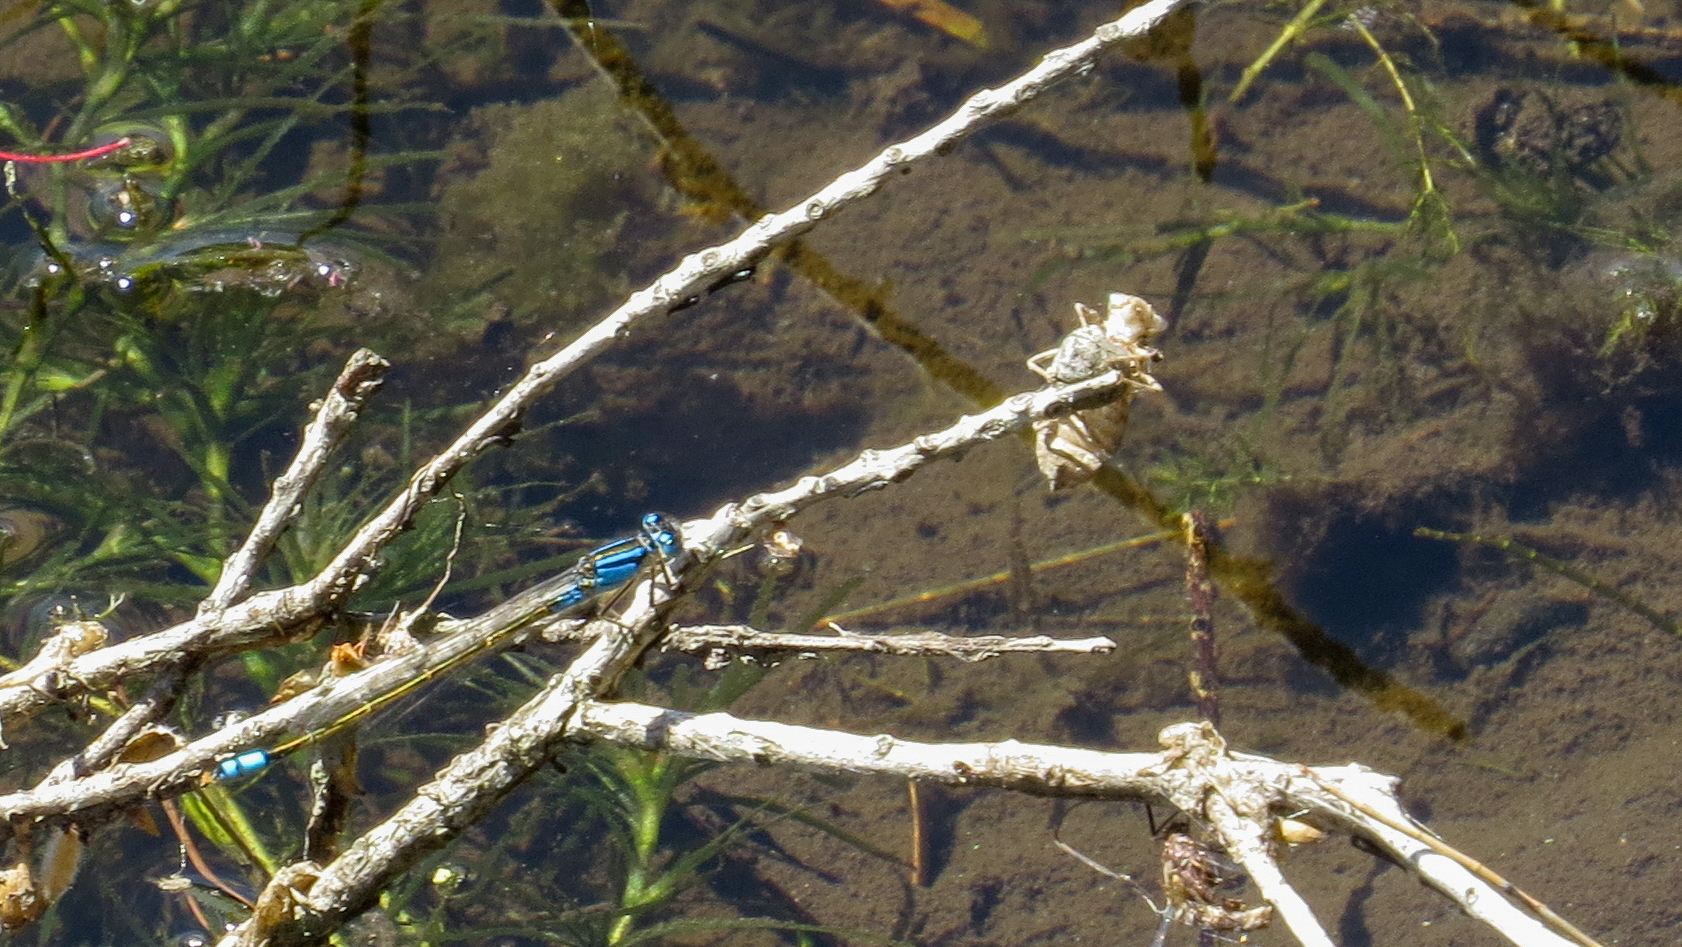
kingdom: Animalia
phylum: Arthropoda
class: Insecta
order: Odonata
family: Coenagrionidae
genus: Ischnura
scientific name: Ischnura heterosticta
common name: Common bluetail
